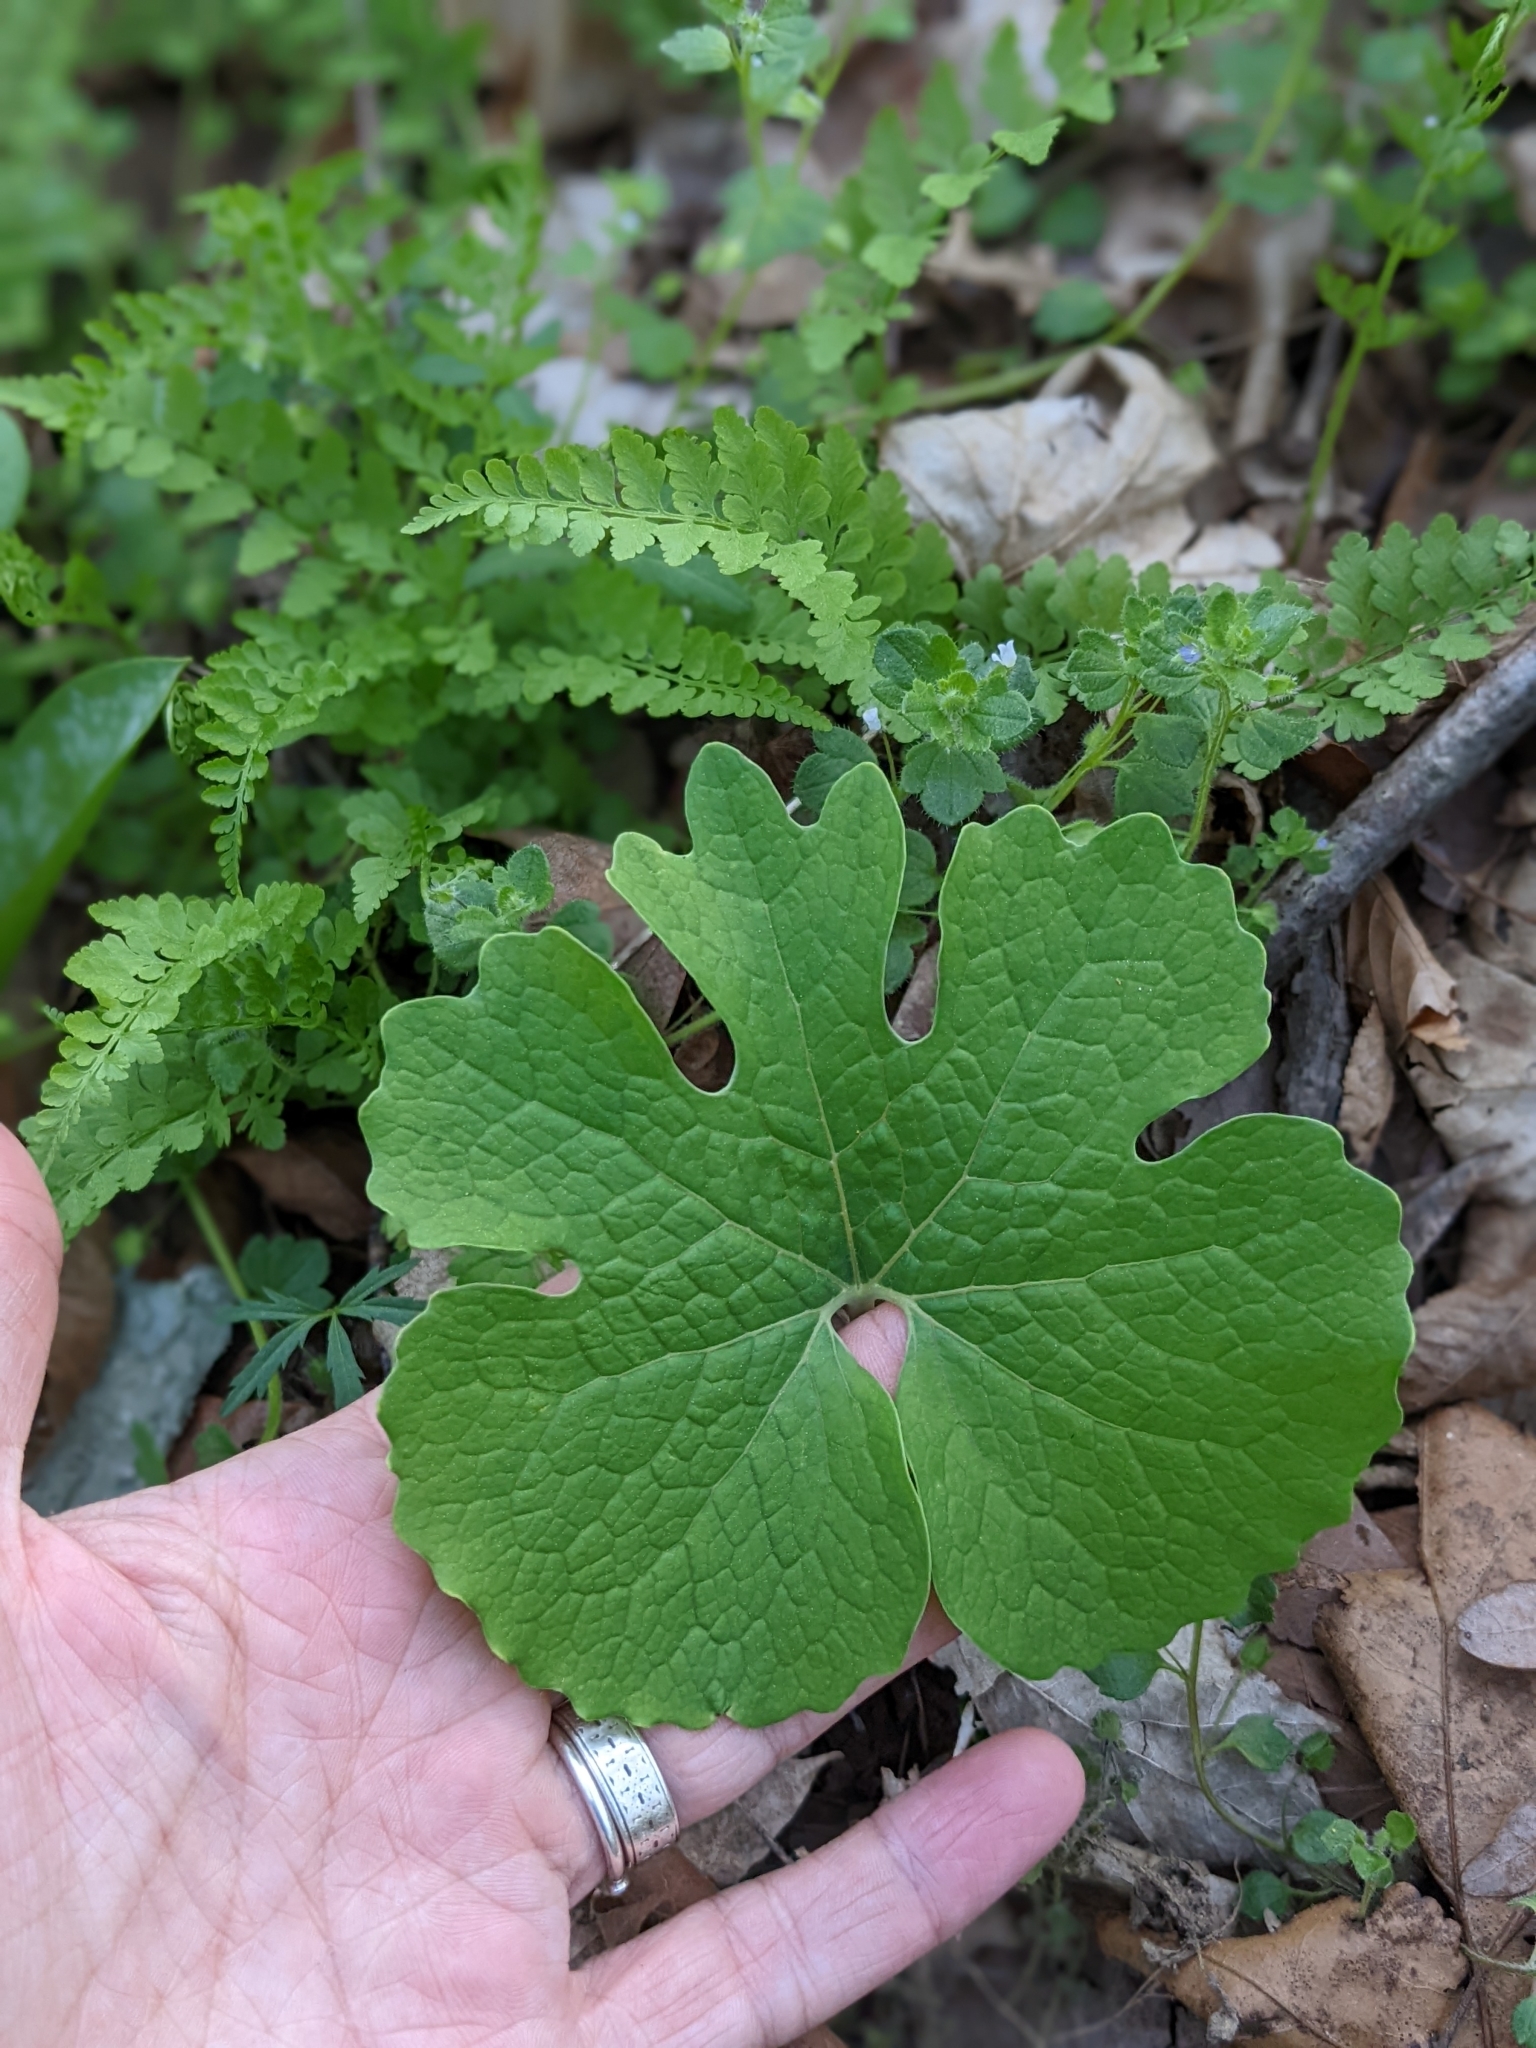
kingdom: Plantae
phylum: Tracheophyta
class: Magnoliopsida
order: Ranunculales
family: Papaveraceae
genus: Sanguinaria
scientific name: Sanguinaria canadensis
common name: Bloodroot
